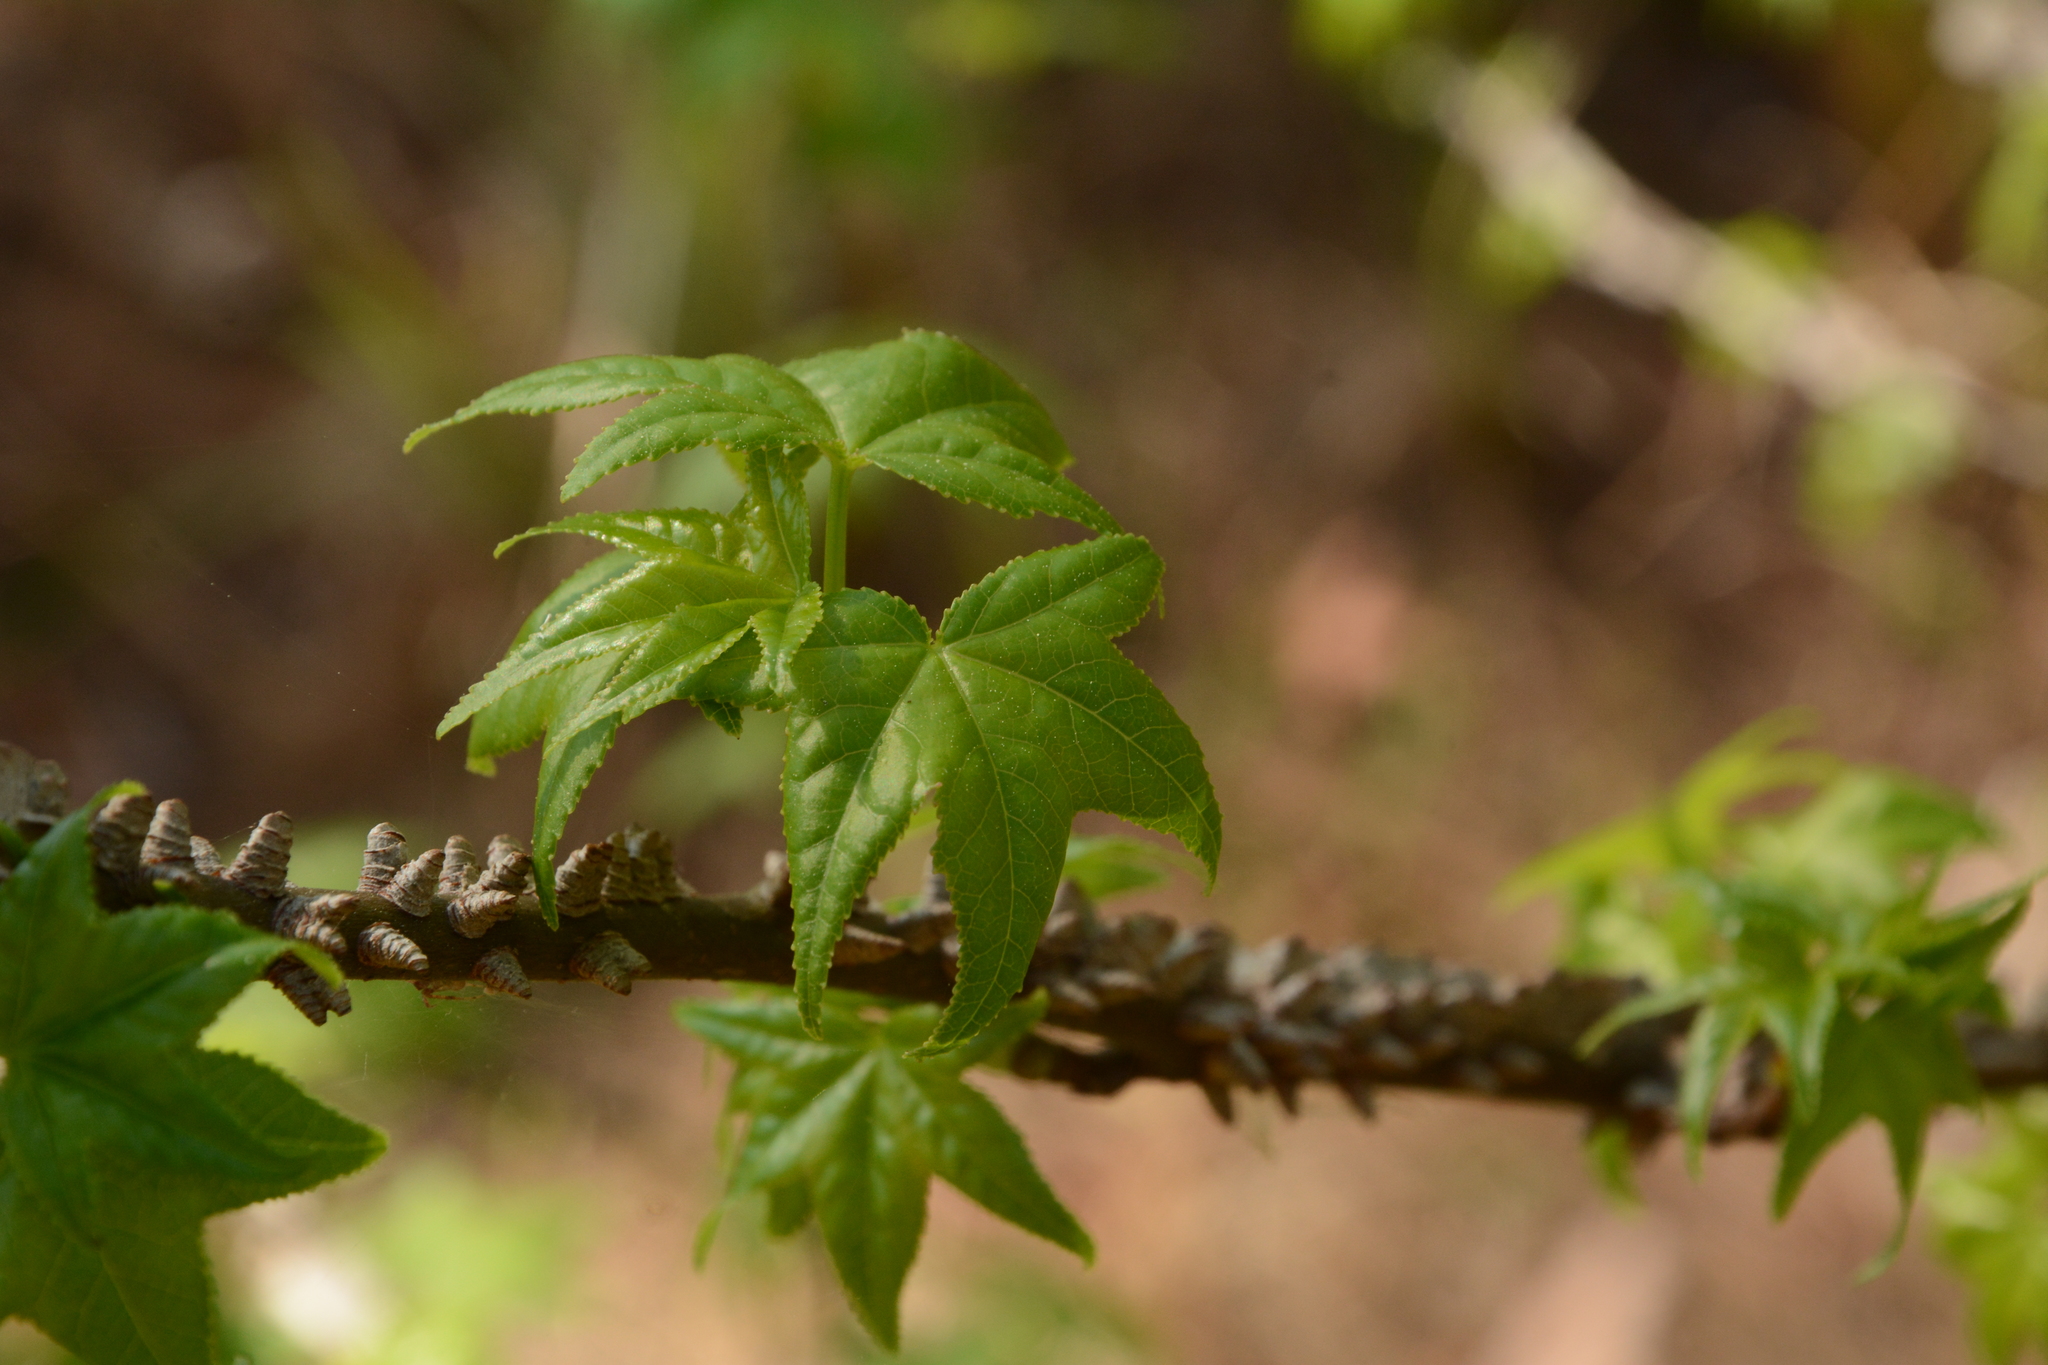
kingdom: Plantae
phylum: Tracheophyta
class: Magnoliopsida
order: Saxifragales
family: Altingiaceae
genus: Liquidambar
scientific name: Liquidambar styraciflua
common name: Sweet gum
